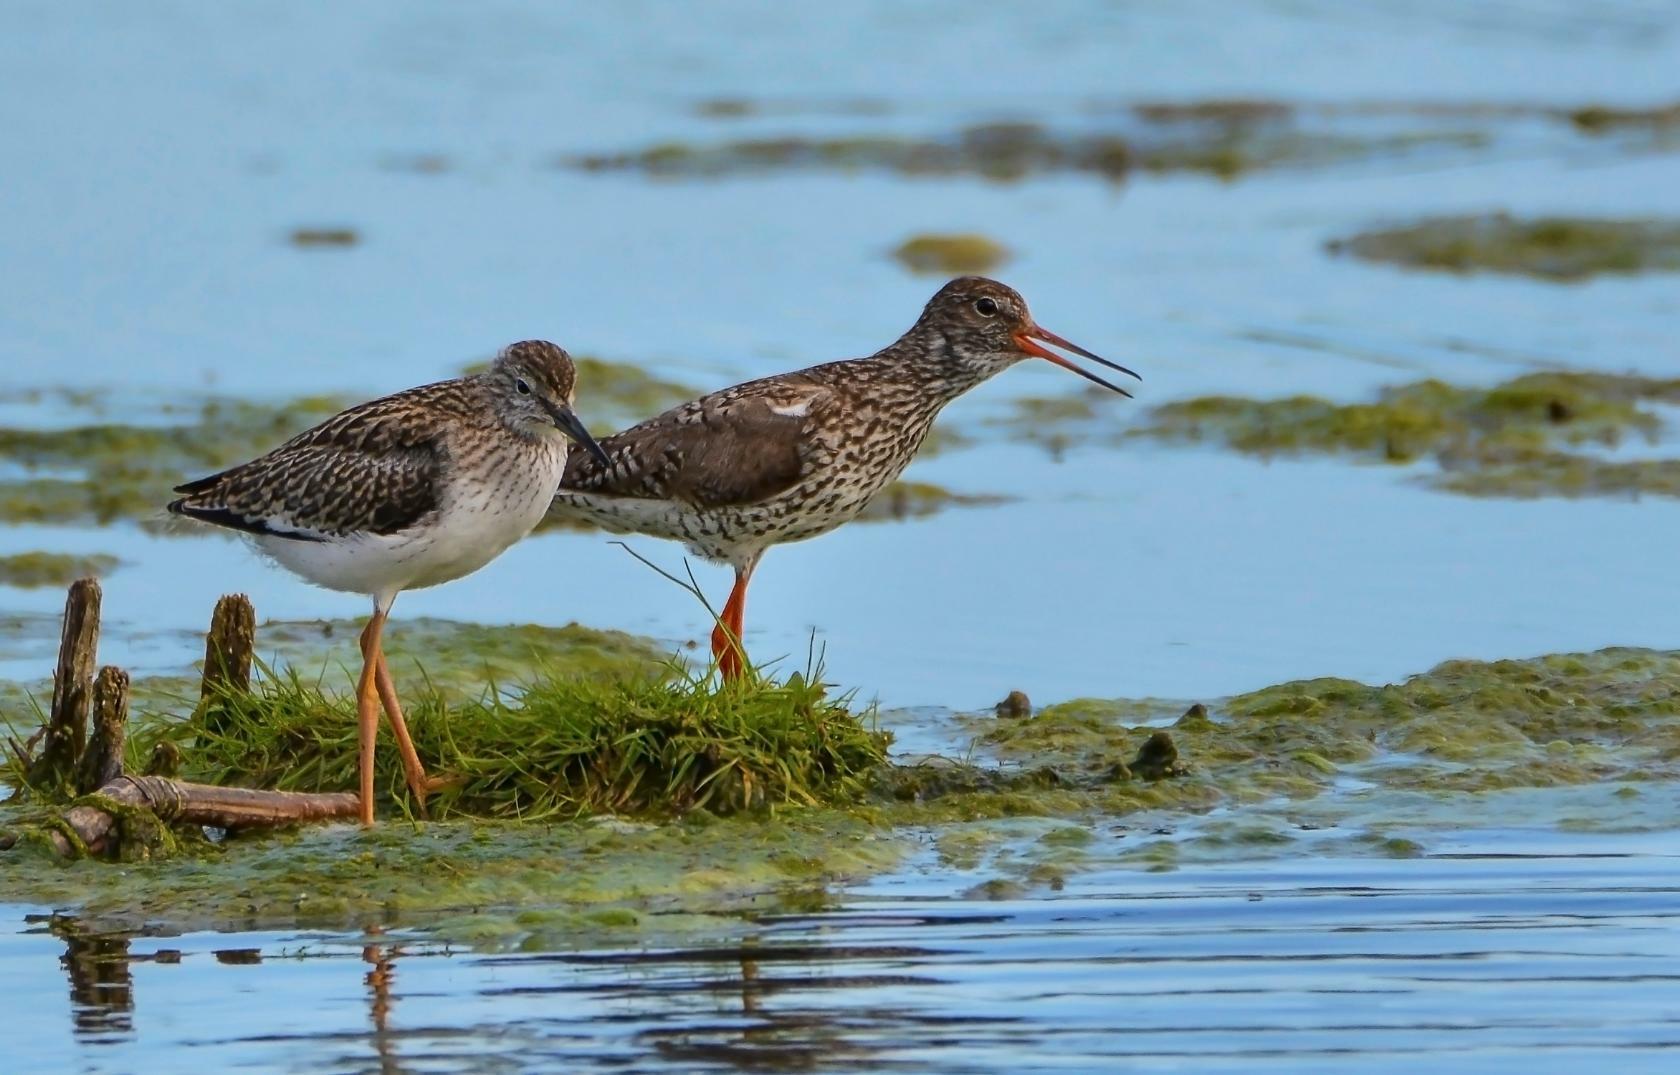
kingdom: Animalia
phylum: Chordata
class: Aves
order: Charadriiformes
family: Scolopacidae
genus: Tringa
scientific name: Tringa totanus
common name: Common redshank
